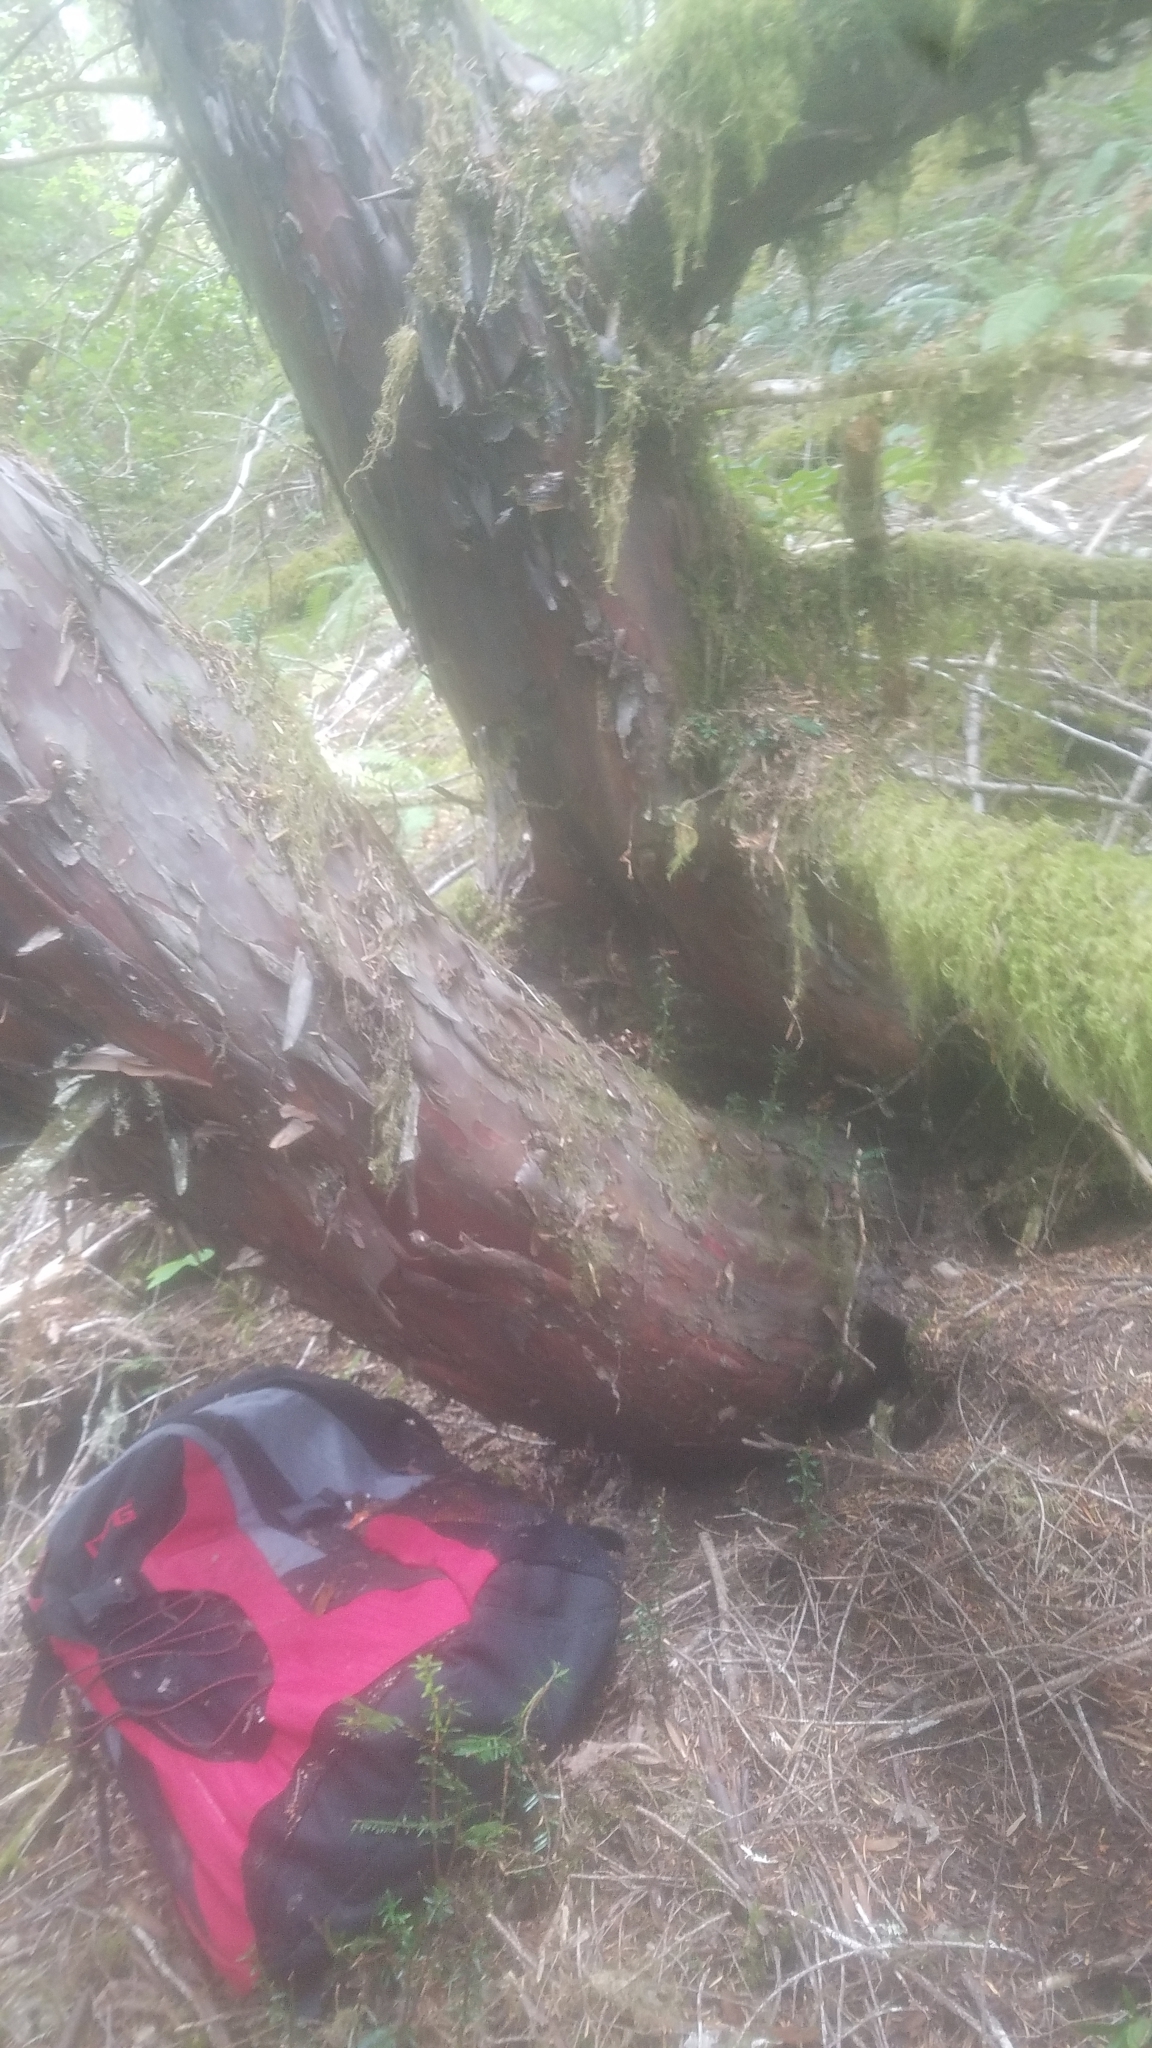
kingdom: Plantae
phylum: Tracheophyta
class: Pinopsida
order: Pinales
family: Taxaceae
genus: Taxus
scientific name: Taxus brevifolia
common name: Pacific yew
